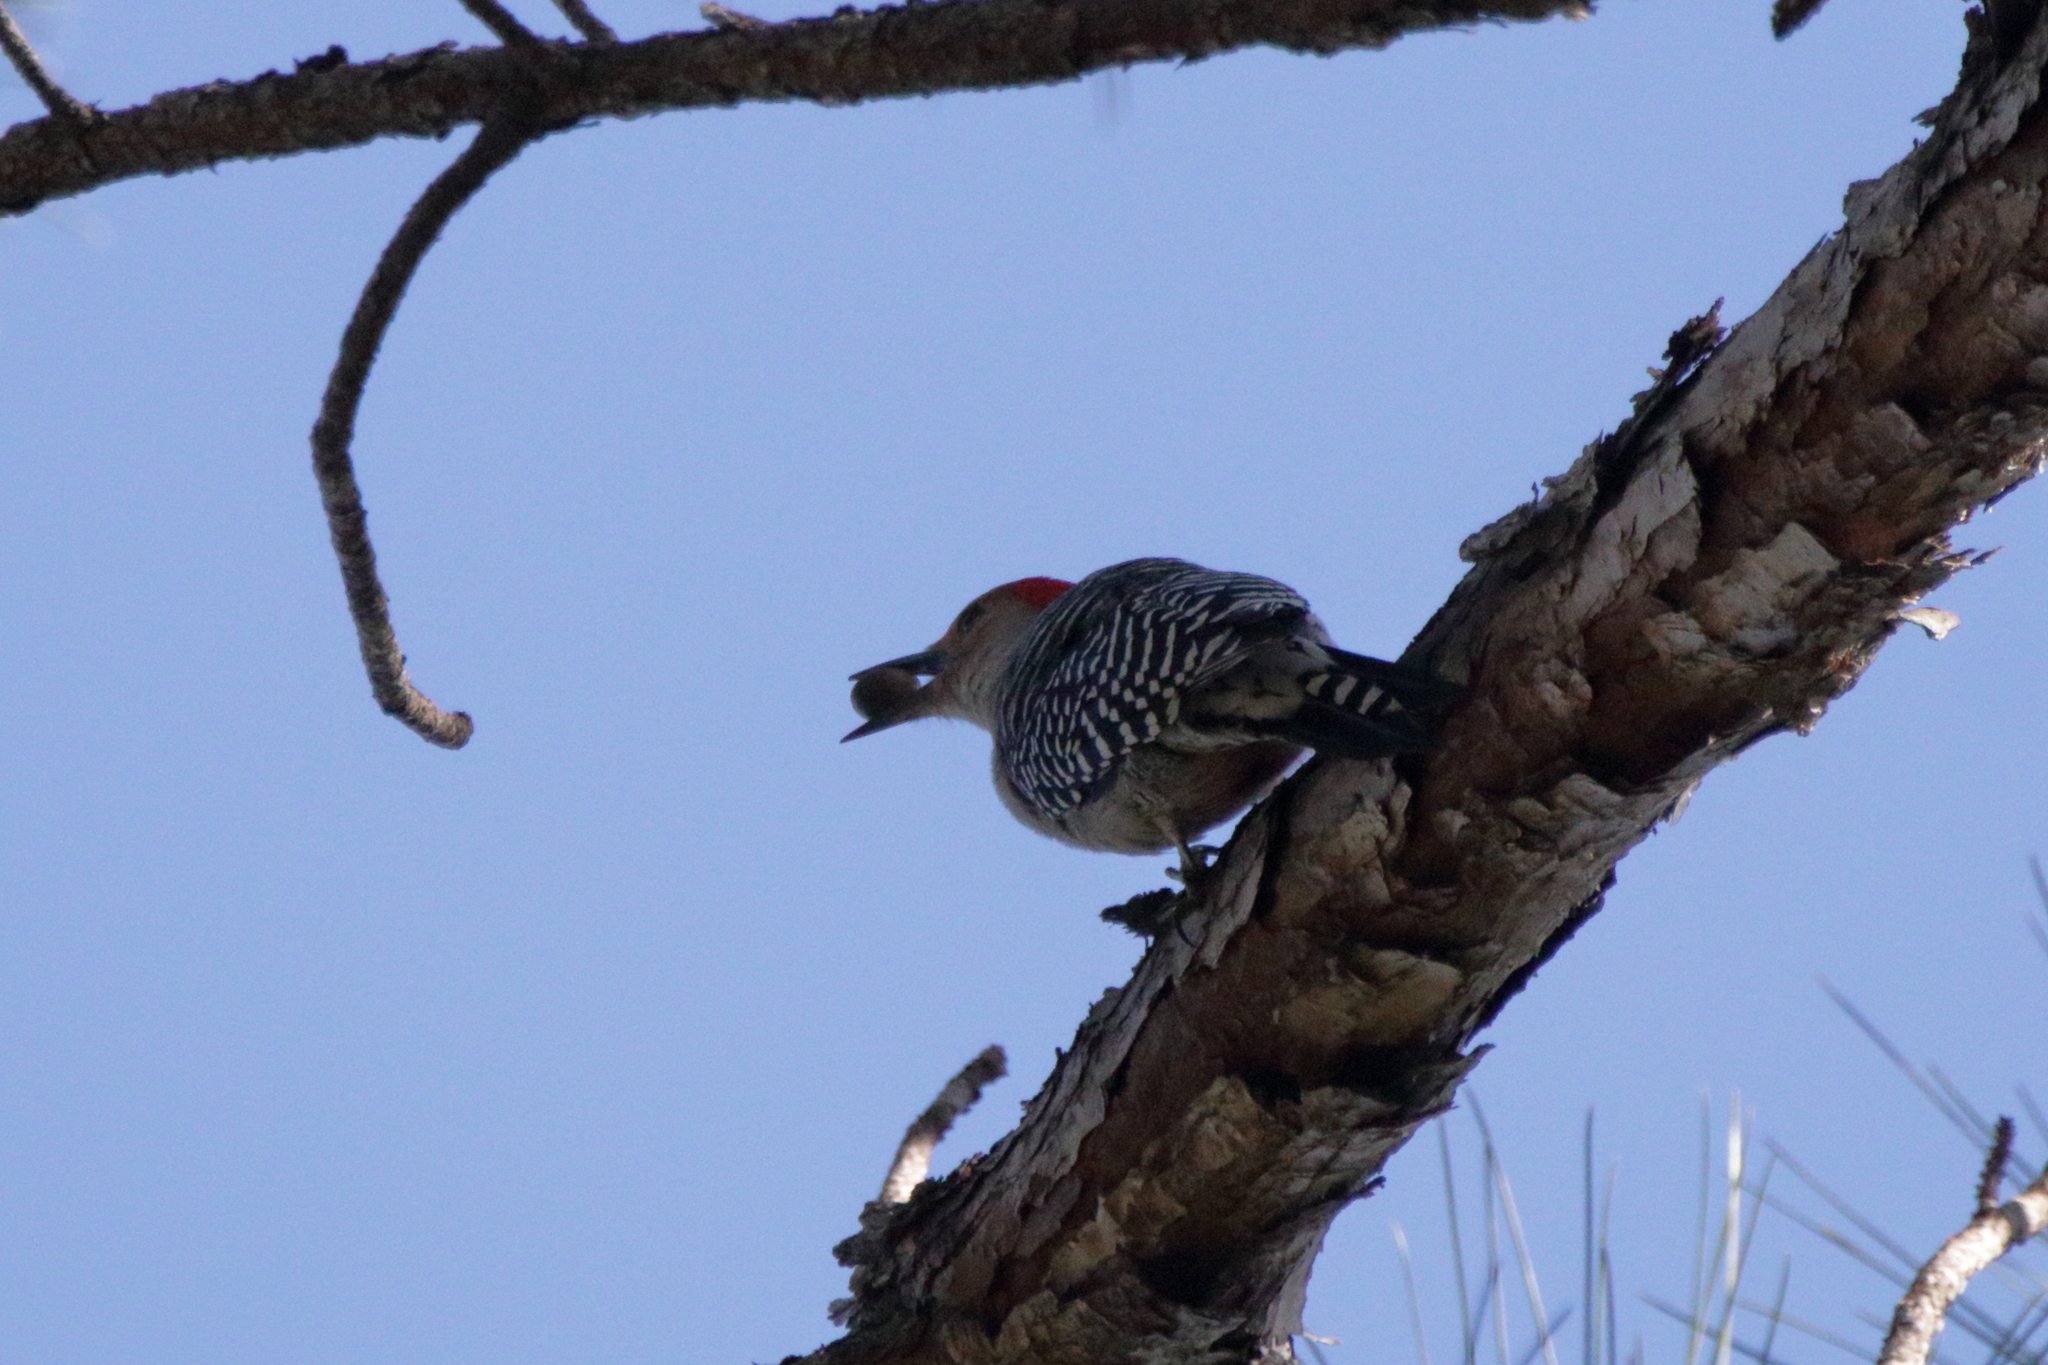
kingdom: Animalia
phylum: Chordata
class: Aves
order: Piciformes
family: Picidae
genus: Melanerpes
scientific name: Melanerpes carolinus
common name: Red-bellied woodpecker
